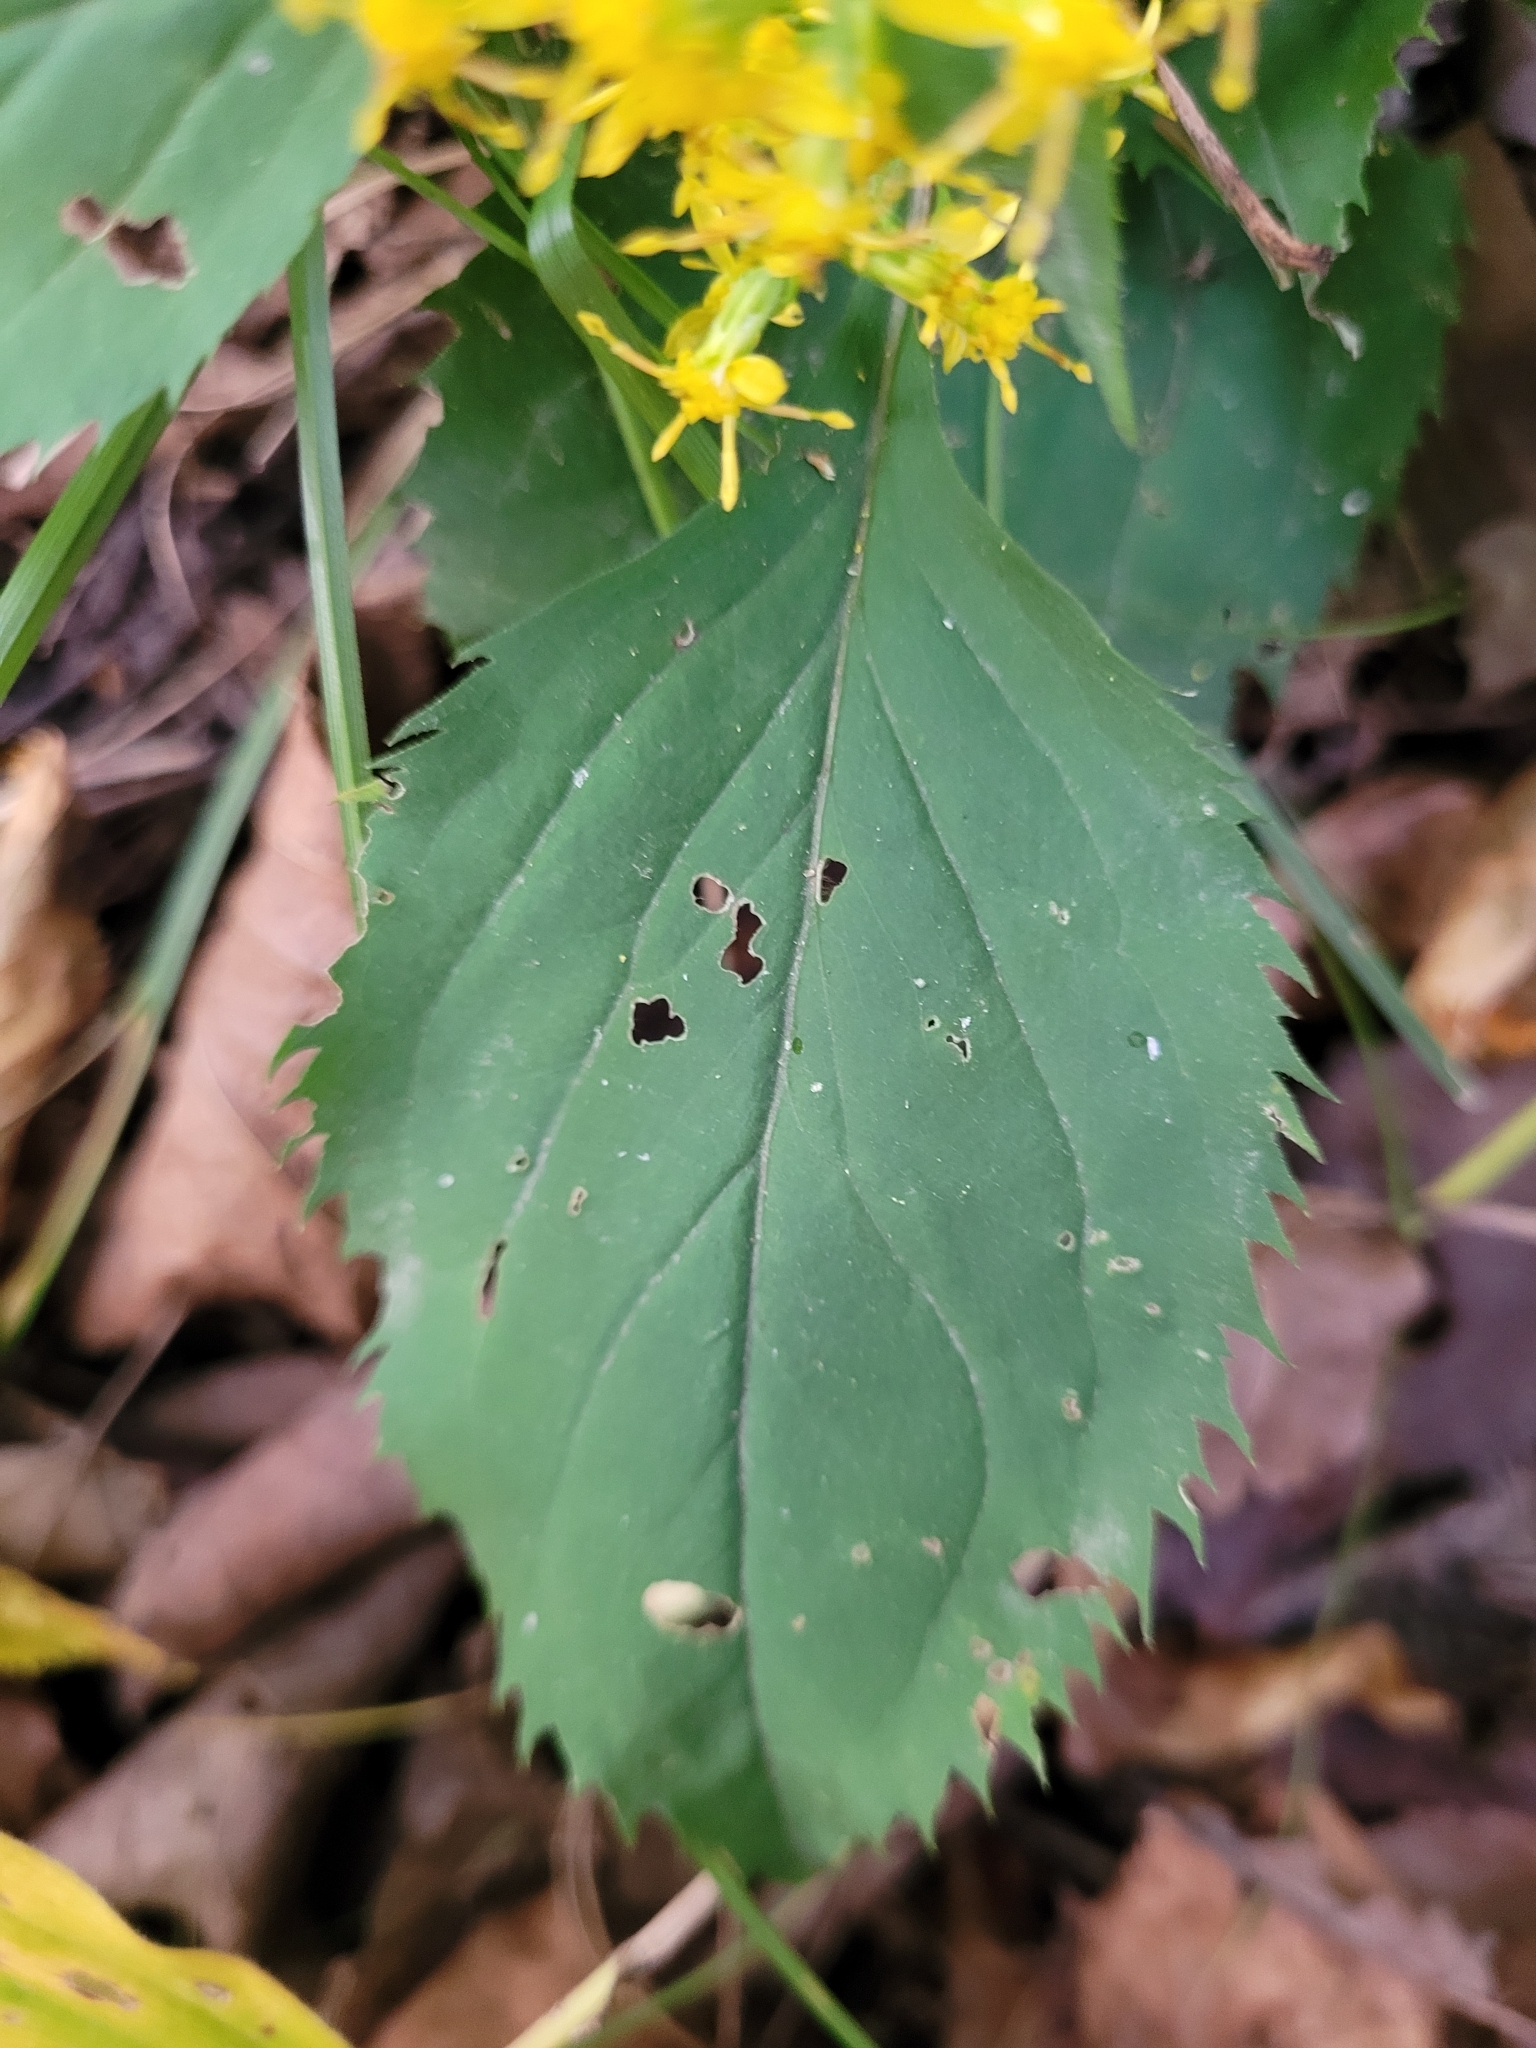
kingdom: Plantae
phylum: Tracheophyta
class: Magnoliopsida
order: Asterales
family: Asteraceae
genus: Solidago
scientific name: Solidago flexicaulis
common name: Zig-zag goldenrod
